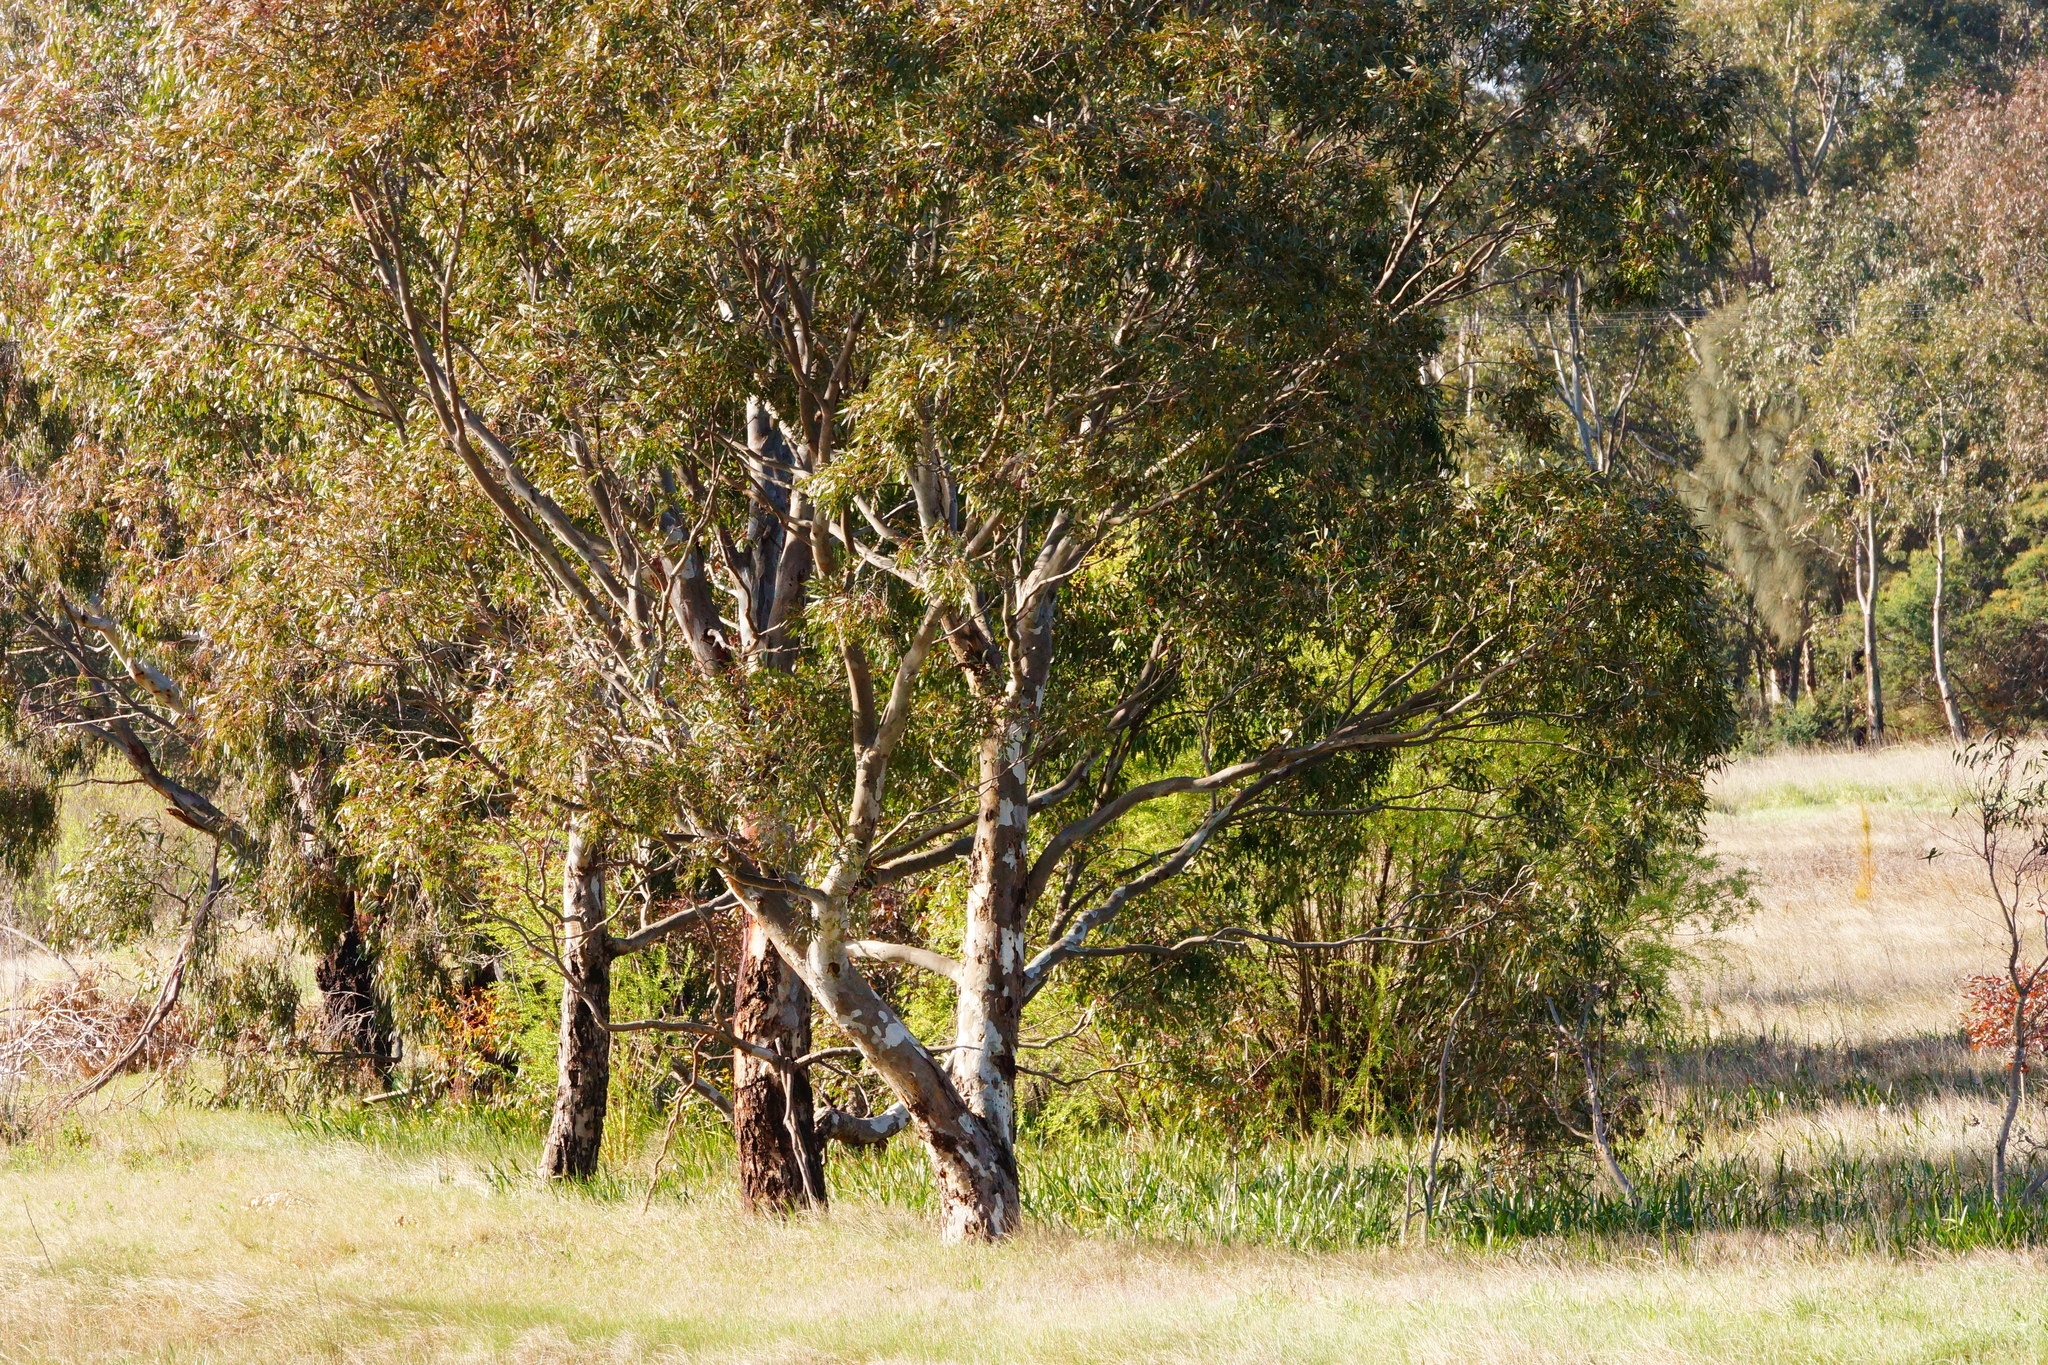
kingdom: Plantae
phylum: Tracheophyta
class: Magnoliopsida
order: Myrtales
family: Myrtaceae
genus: Eucalyptus
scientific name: Eucalyptus camaldulensis
